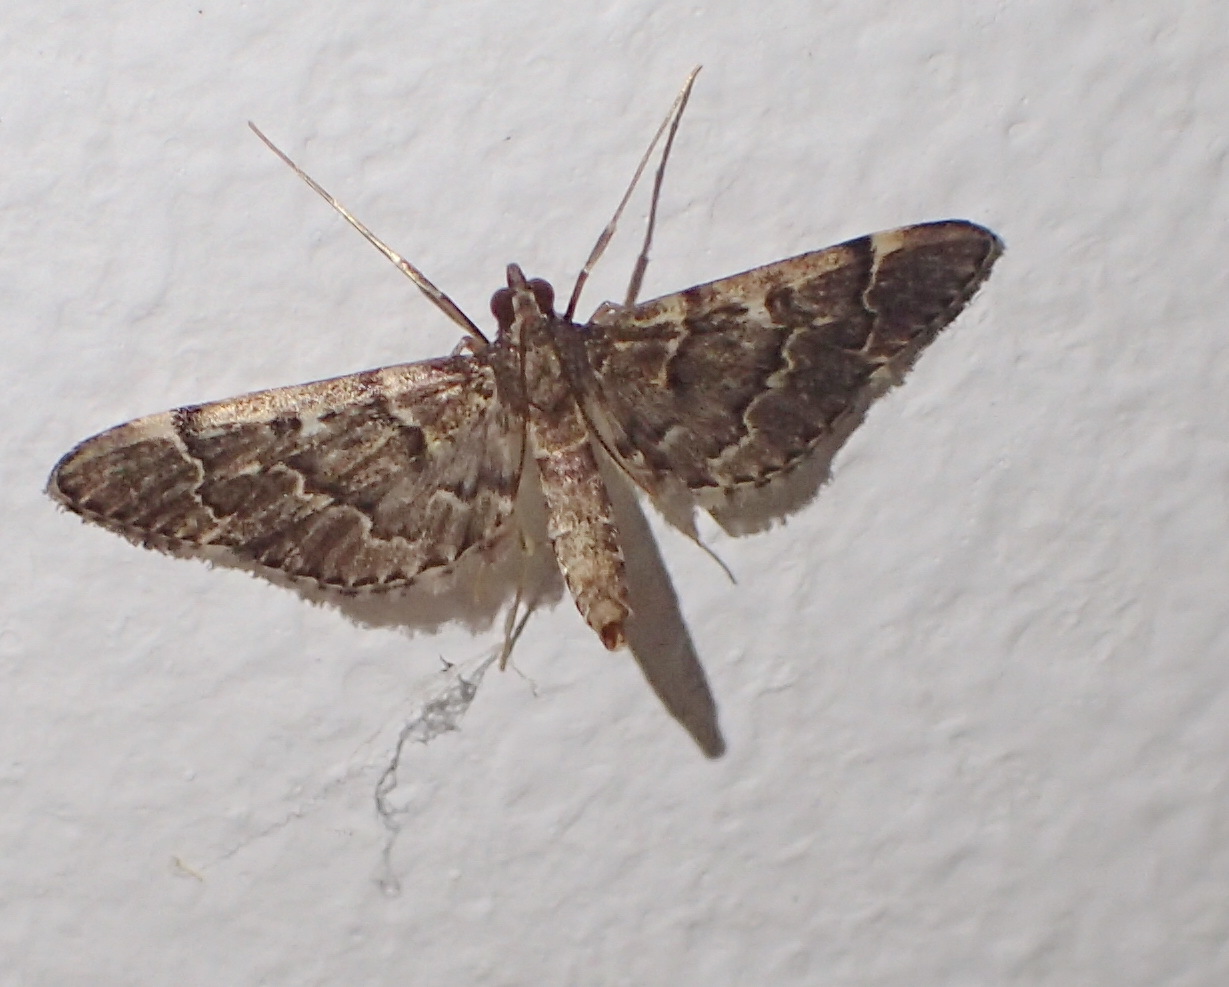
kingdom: Animalia
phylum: Arthropoda
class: Insecta
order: Lepidoptera
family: Crambidae
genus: Duponchelia
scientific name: Duponchelia fovealis
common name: Crambid moth
